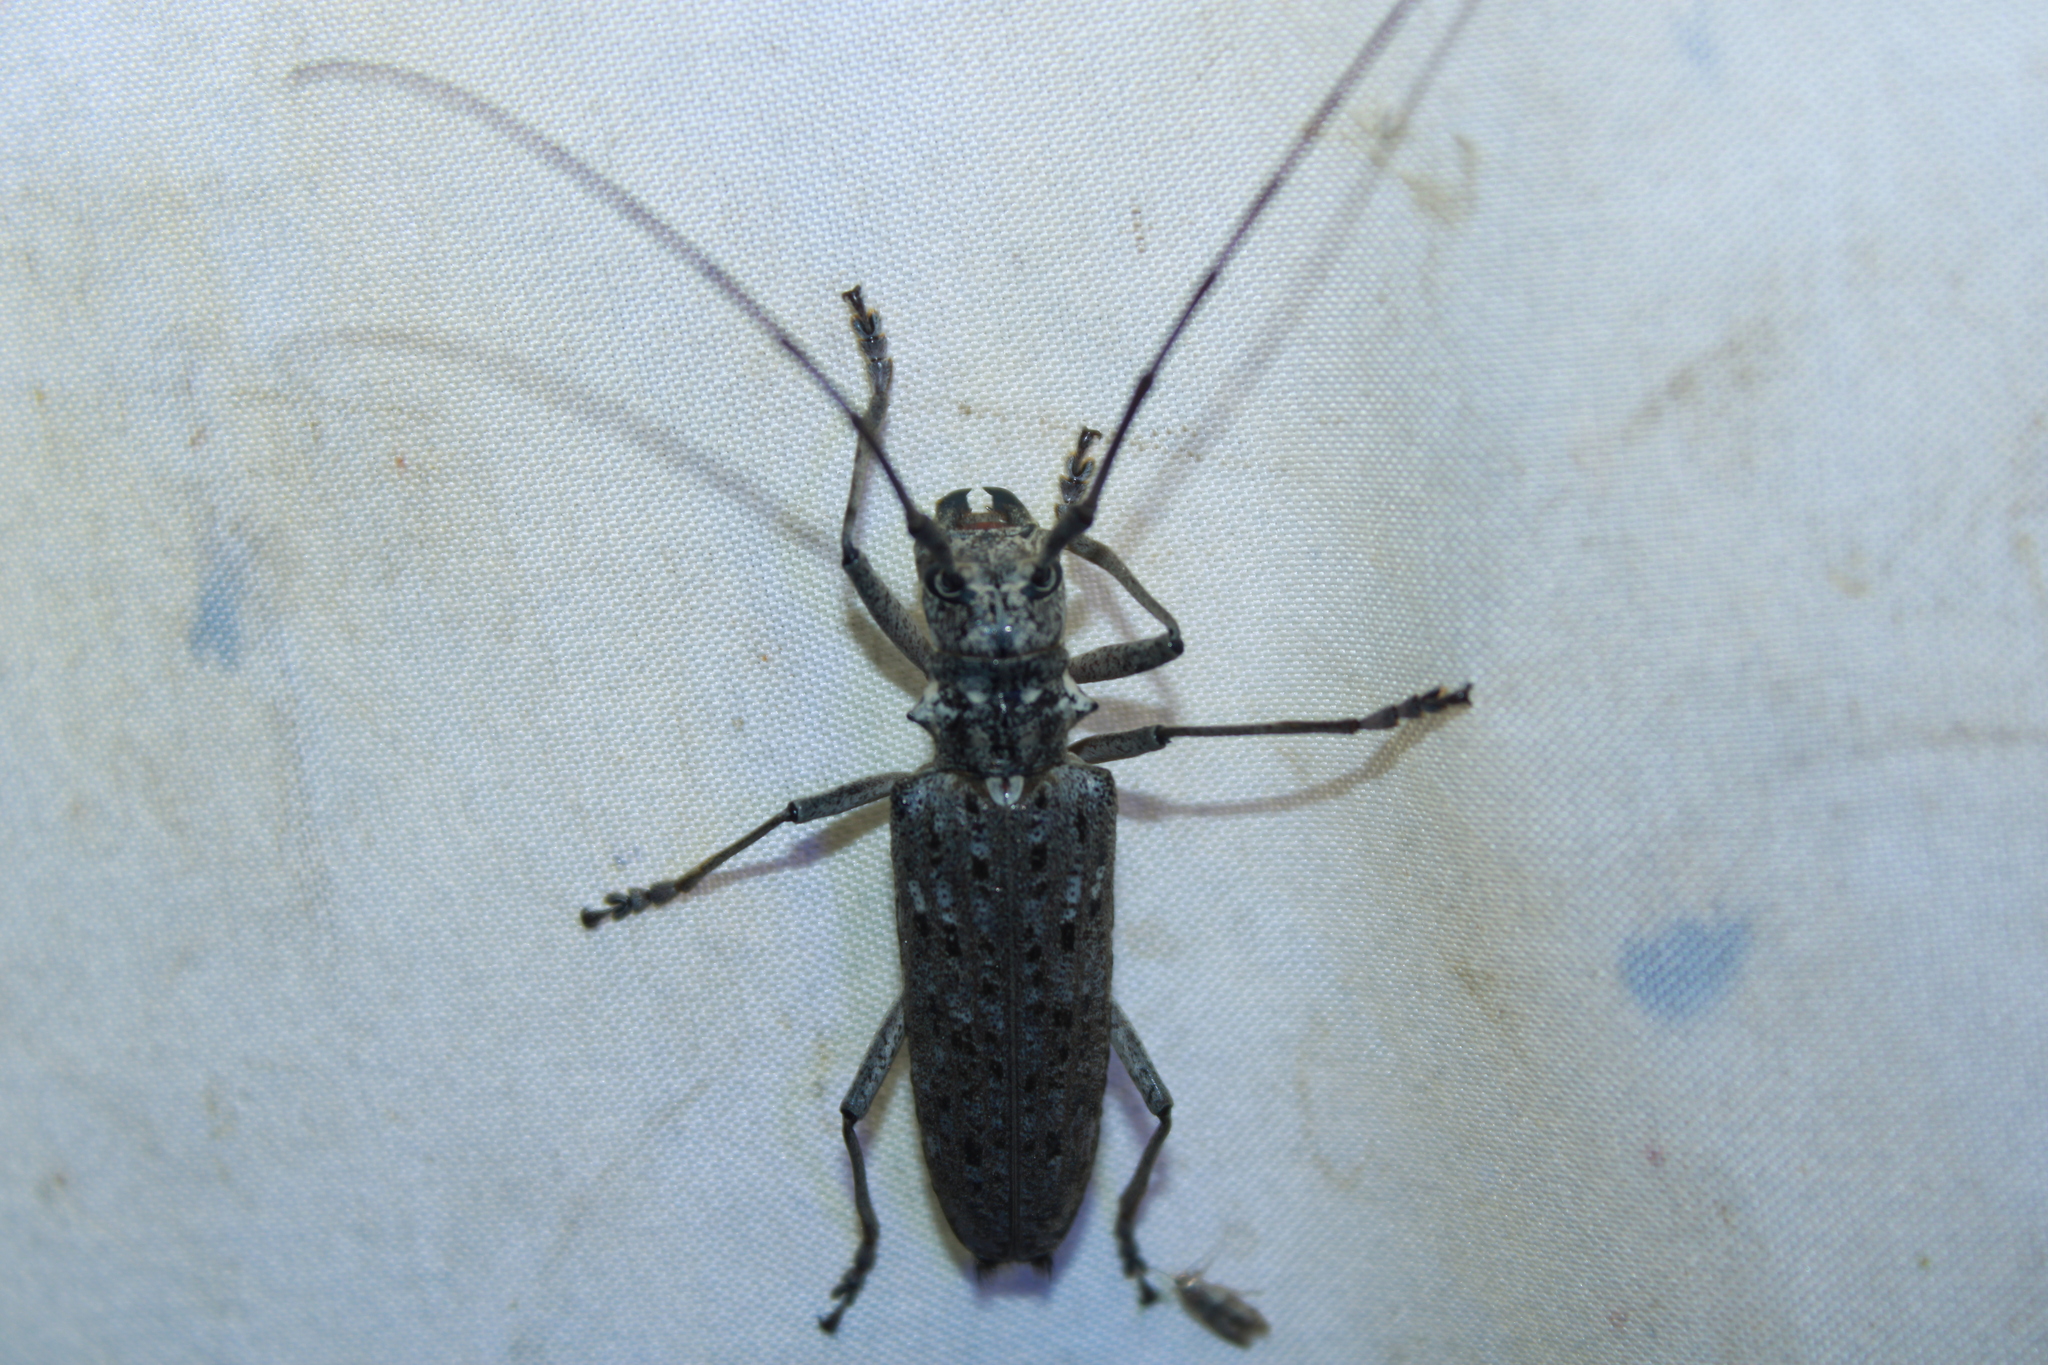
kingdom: Animalia
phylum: Arthropoda
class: Insecta
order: Coleoptera
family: Cerambycidae
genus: Monochamus
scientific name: Monochamus notatus
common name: Northeastern pine sawyer beetle
